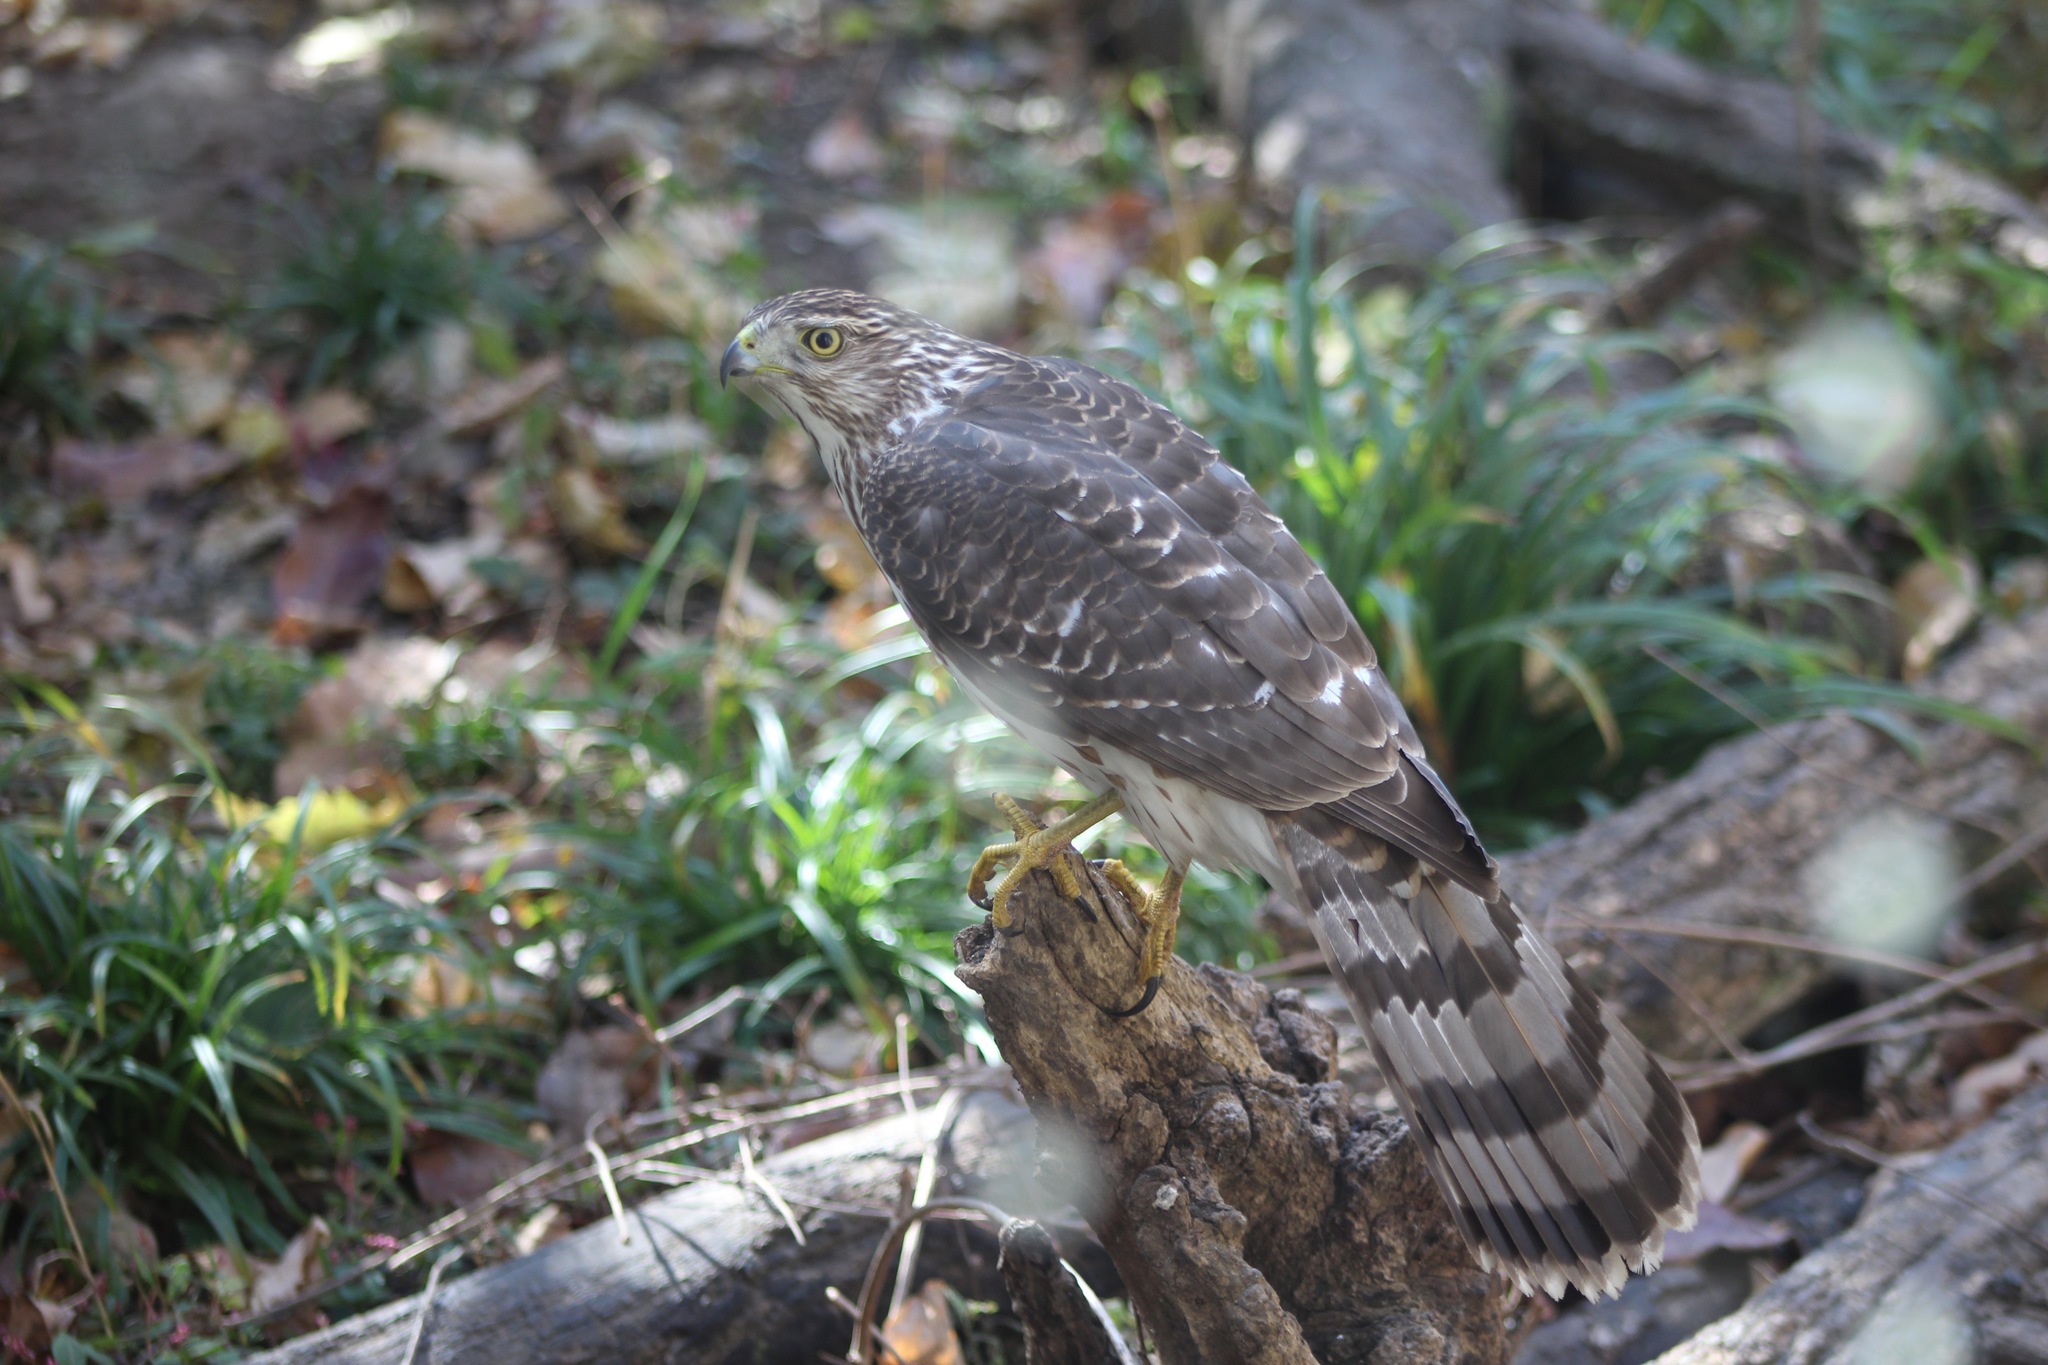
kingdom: Animalia
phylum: Chordata
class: Aves
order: Accipitriformes
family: Accipitridae
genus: Accipiter
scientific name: Accipiter cooperii
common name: Cooper's hawk
